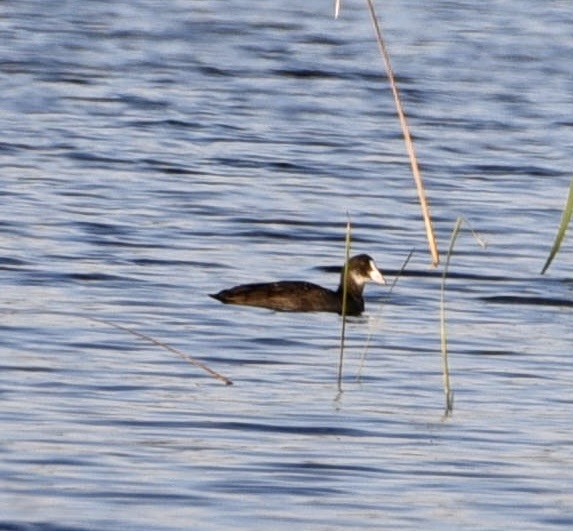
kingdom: Animalia
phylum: Chordata
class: Aves
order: Gruiformes
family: Rallidae
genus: Fulica
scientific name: Fulica atra
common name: Eurasian coot
